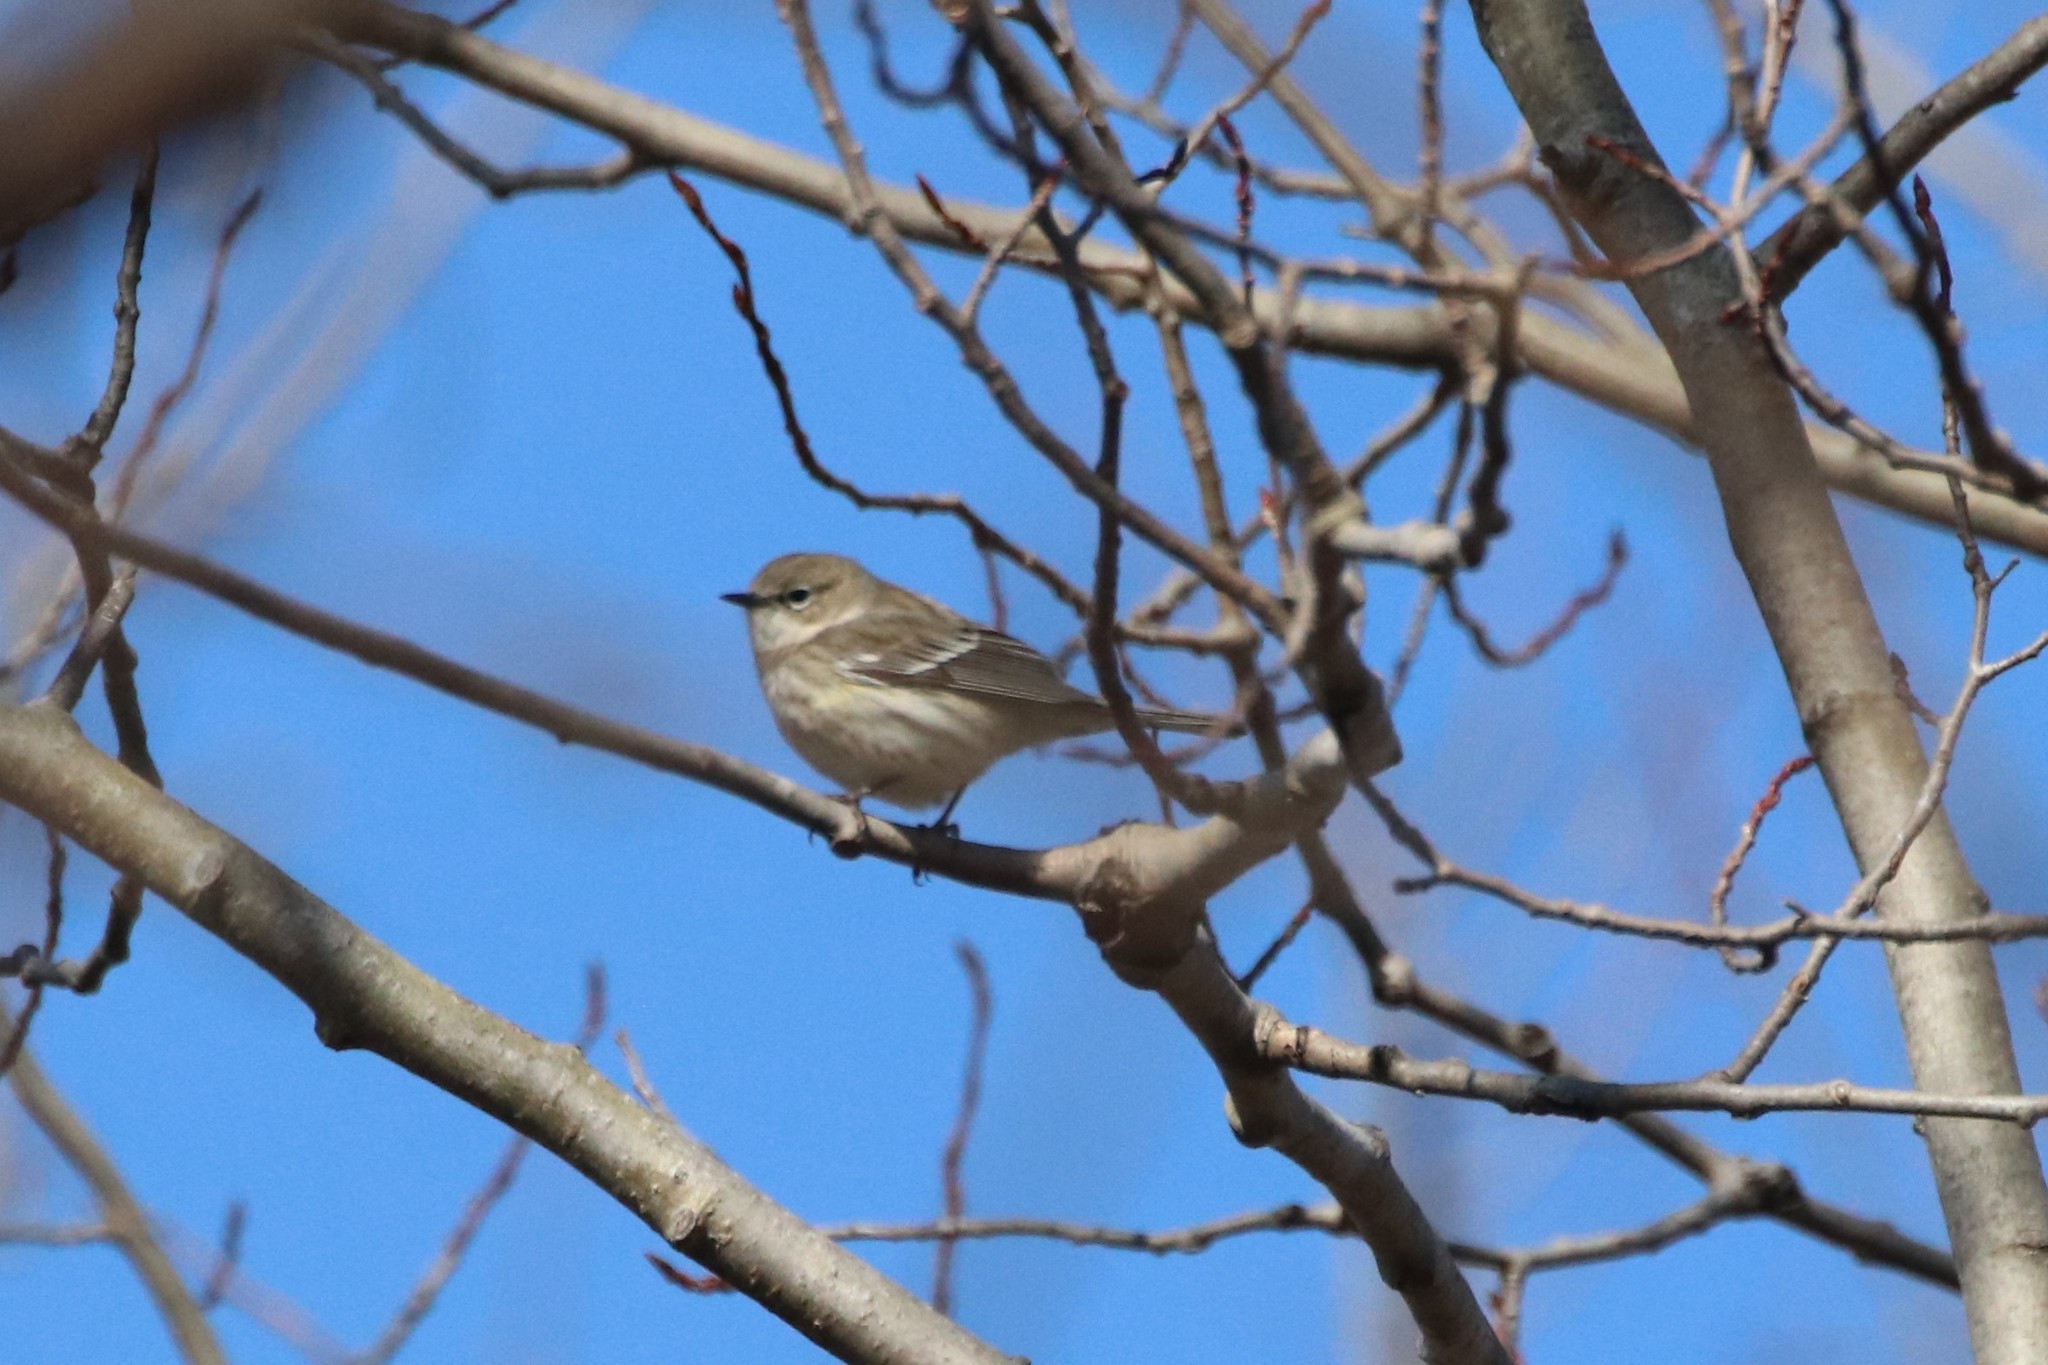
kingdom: Animalia
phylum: Chordata
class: Aves
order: Passeriformes
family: Parulidae
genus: Setophaga
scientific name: Setophaga coronata
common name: Myrtle warbler
